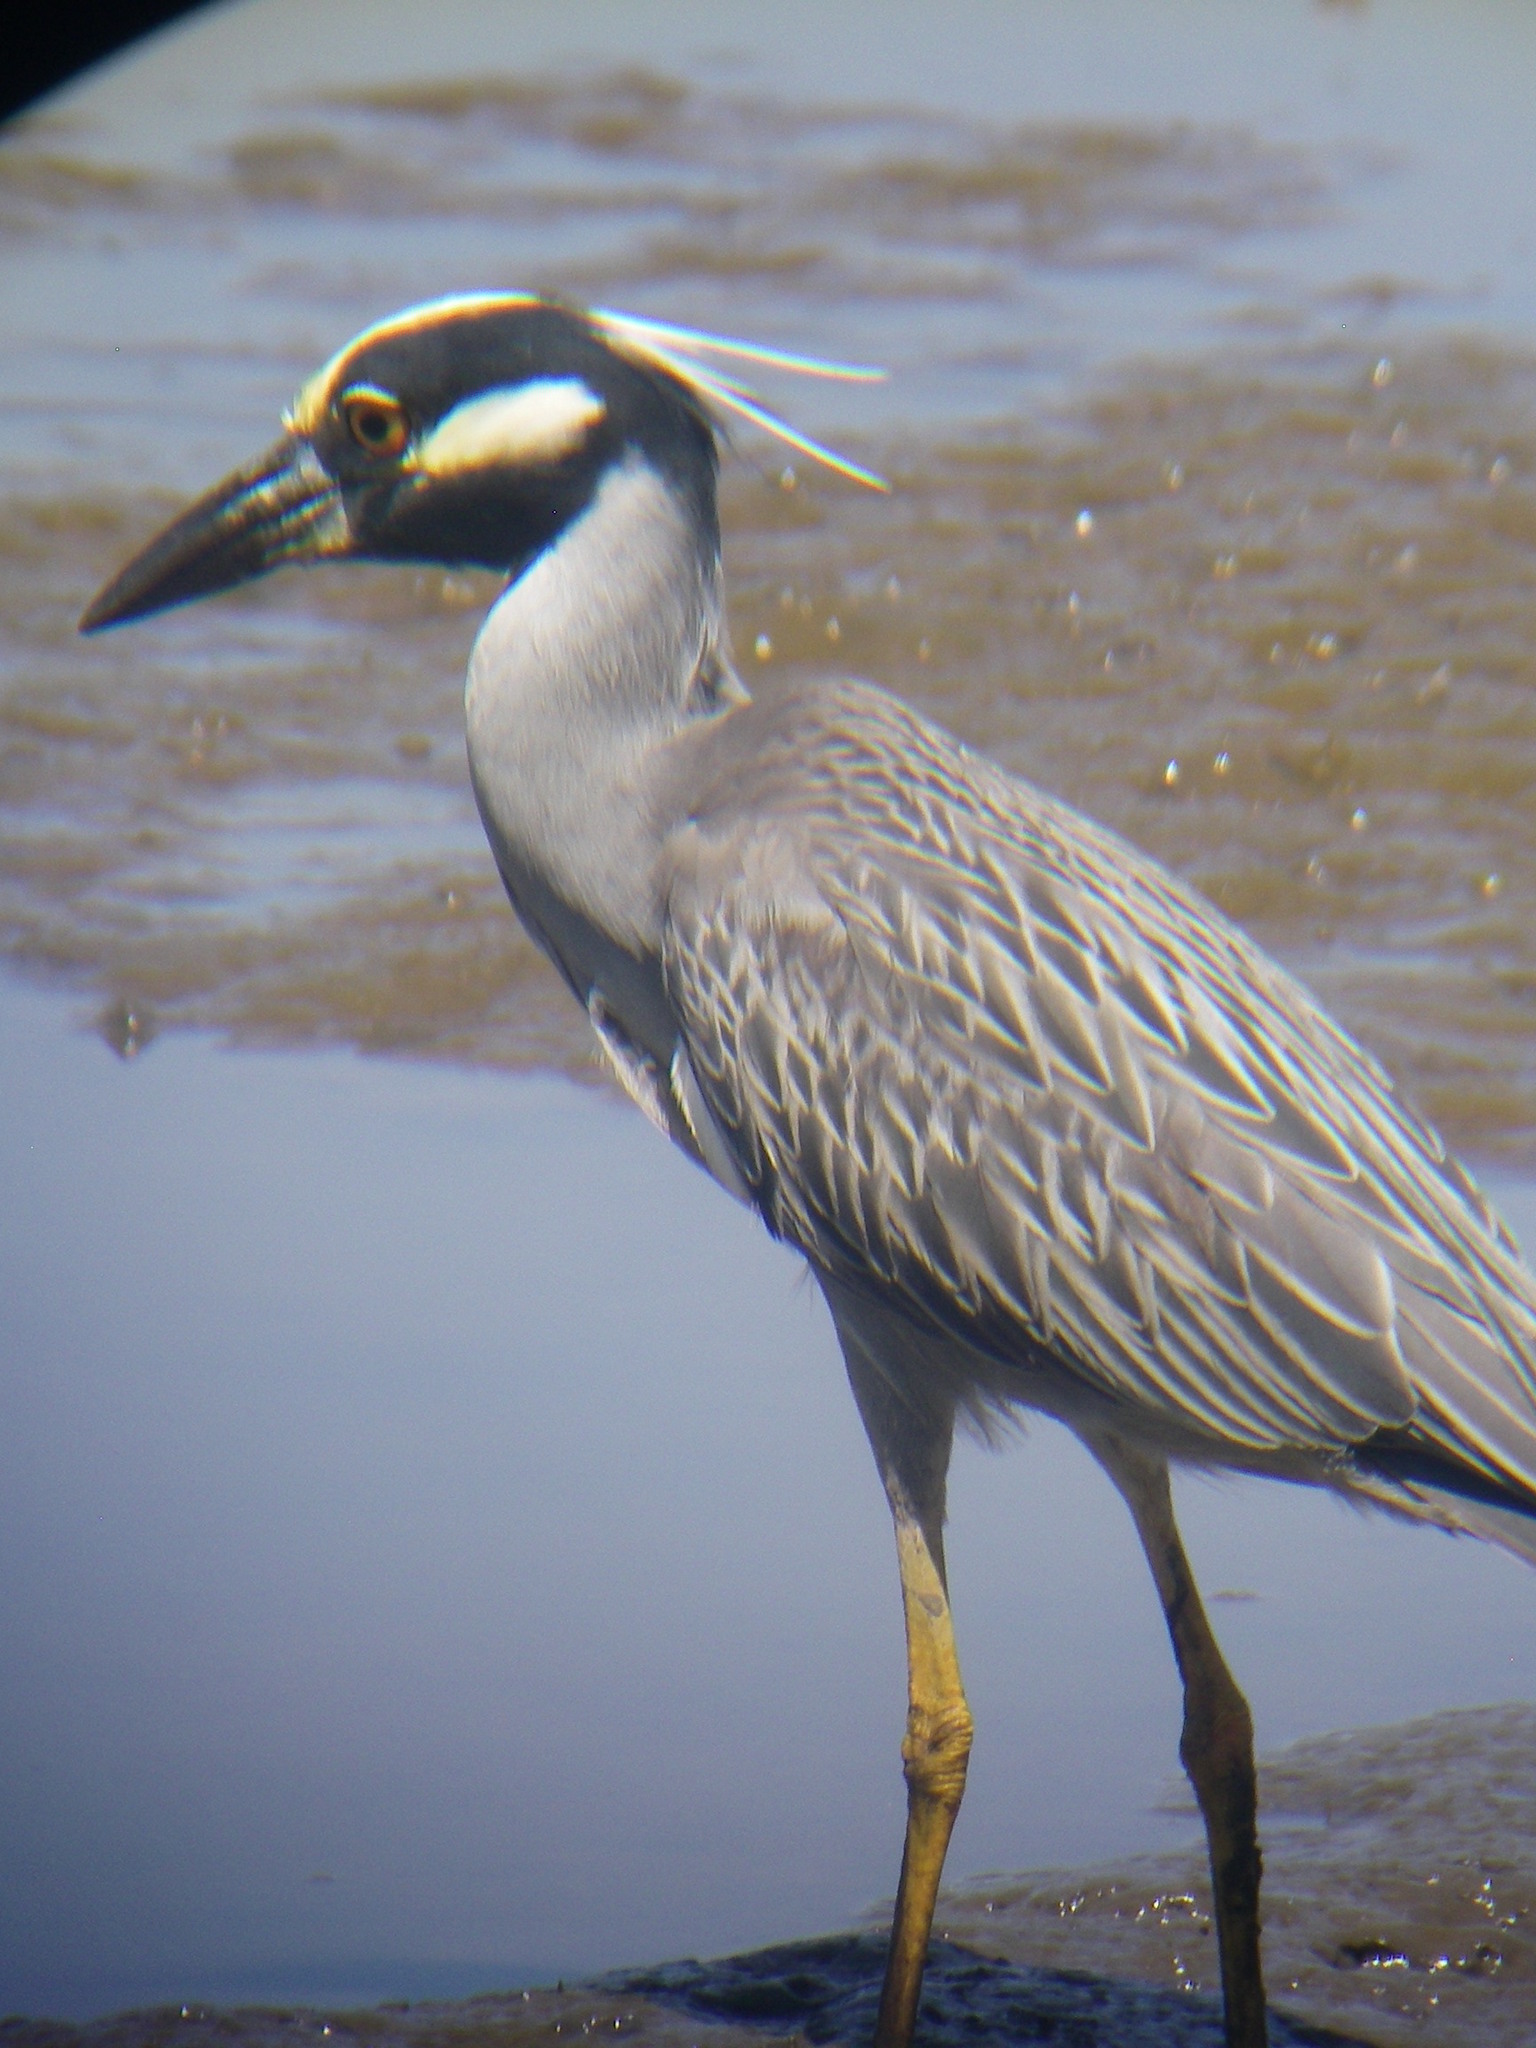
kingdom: Animalia
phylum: Chordata
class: Aves
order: Pelecaniformes
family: Ardeidae
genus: Nyctanassa
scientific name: Nyctanassa violacea
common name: Yellow-crowned night heron
